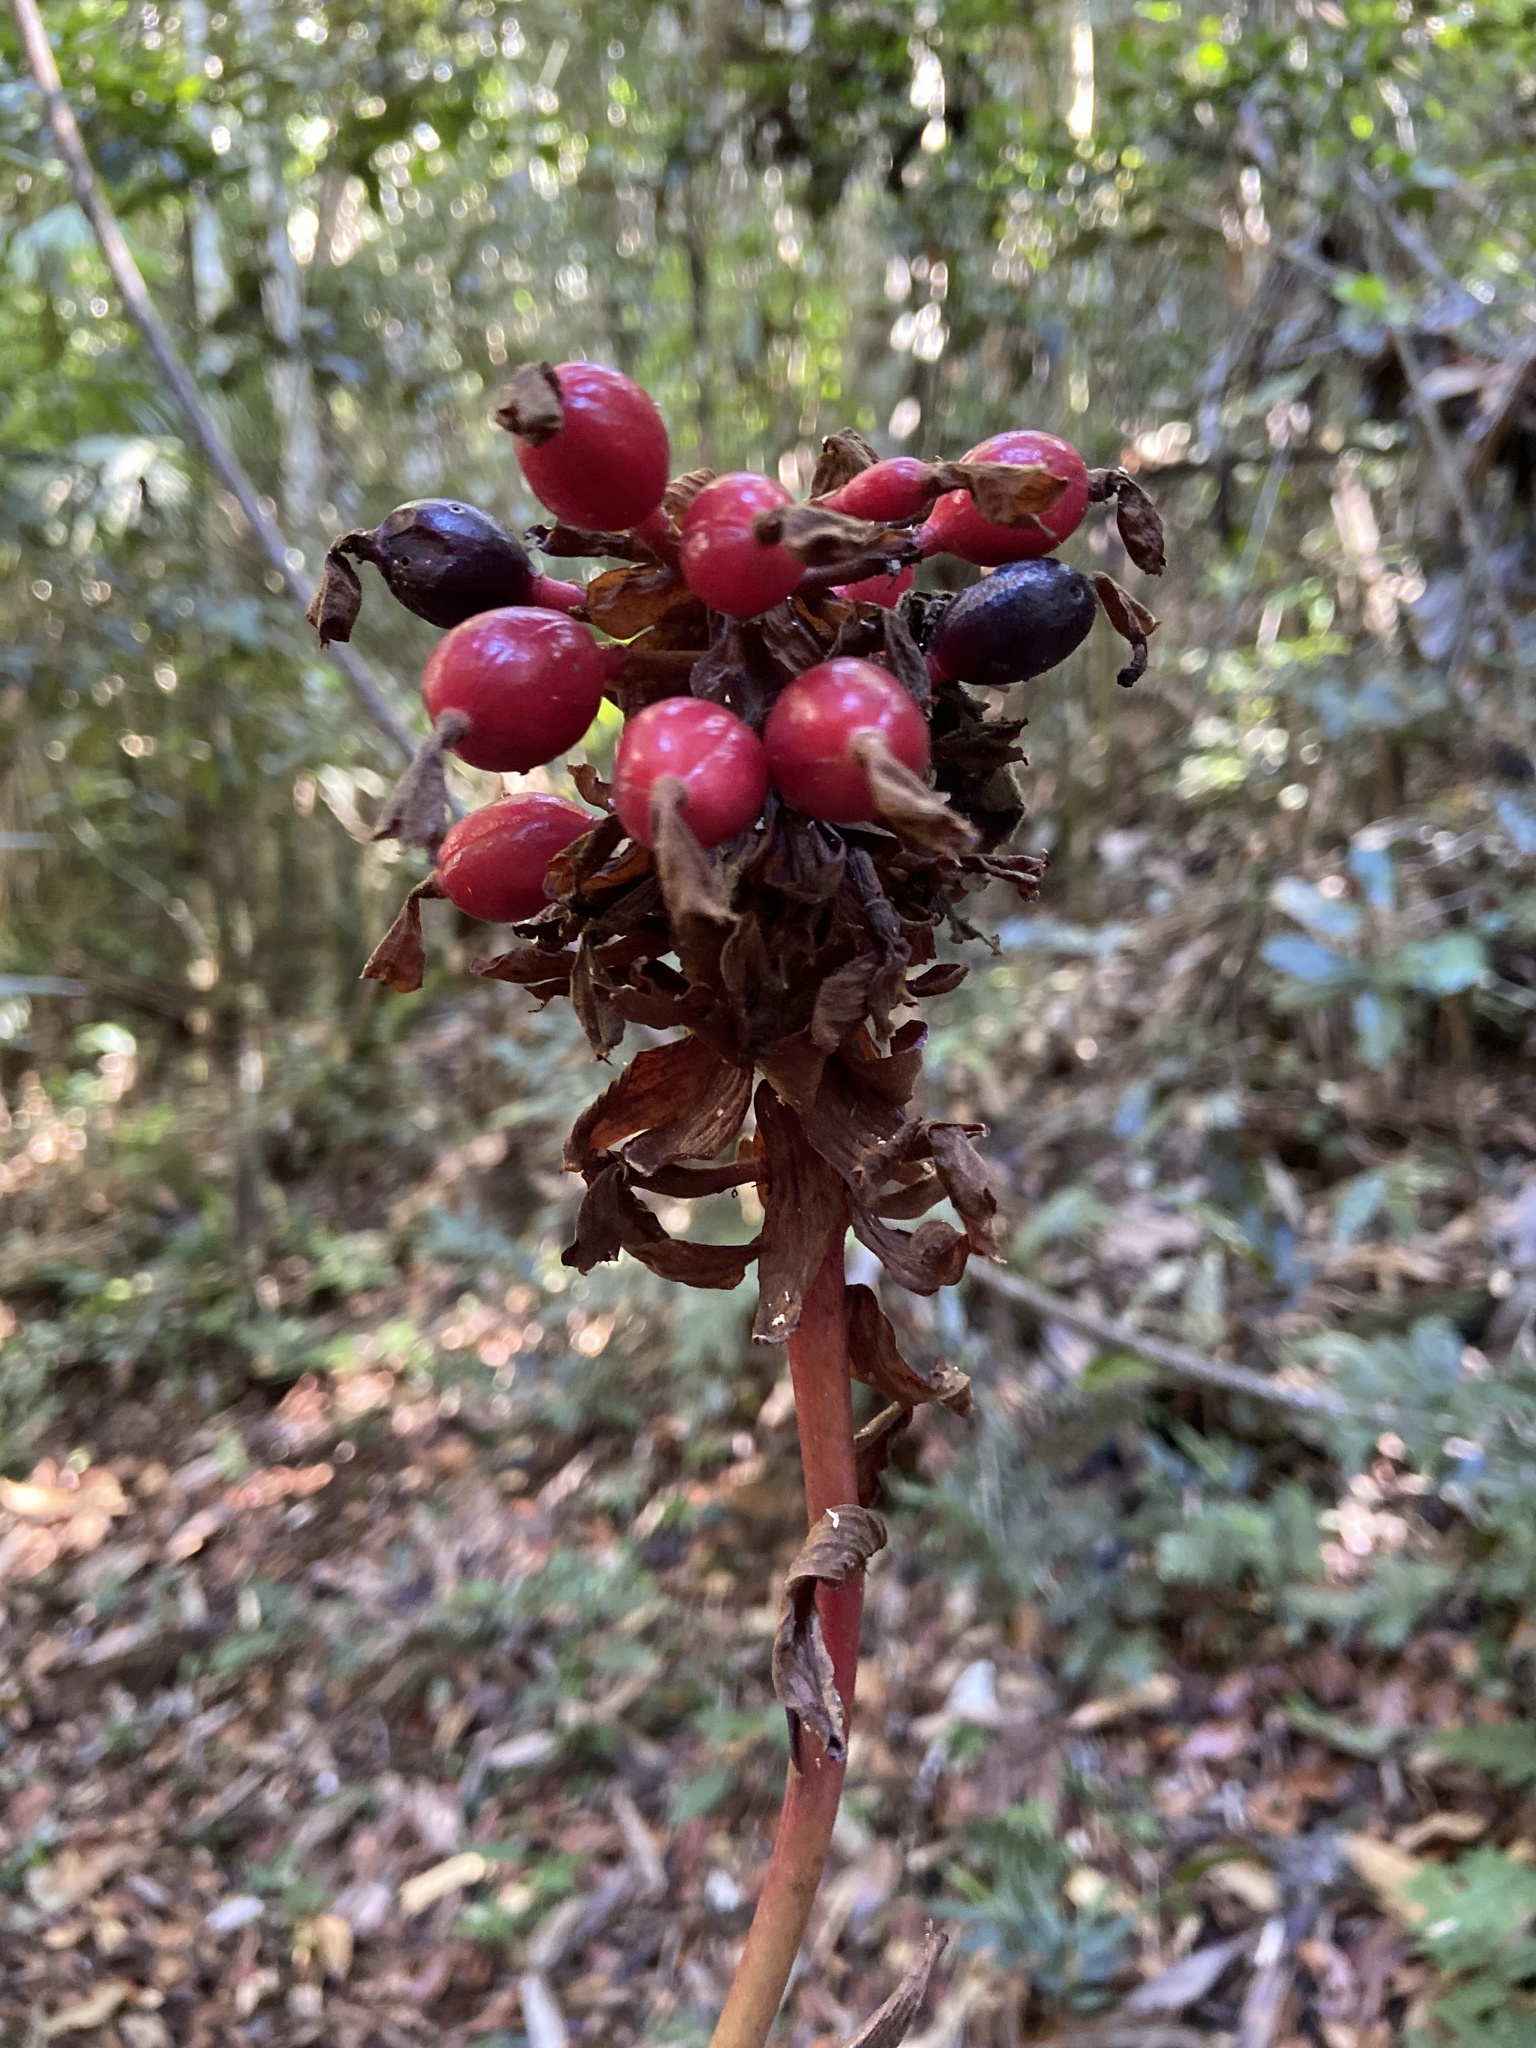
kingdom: Plantae
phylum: Tracheophyta
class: Liliopsida
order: Zingiberales
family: Zingiberaceae
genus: Renealmia
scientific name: Renealmia alpinia
